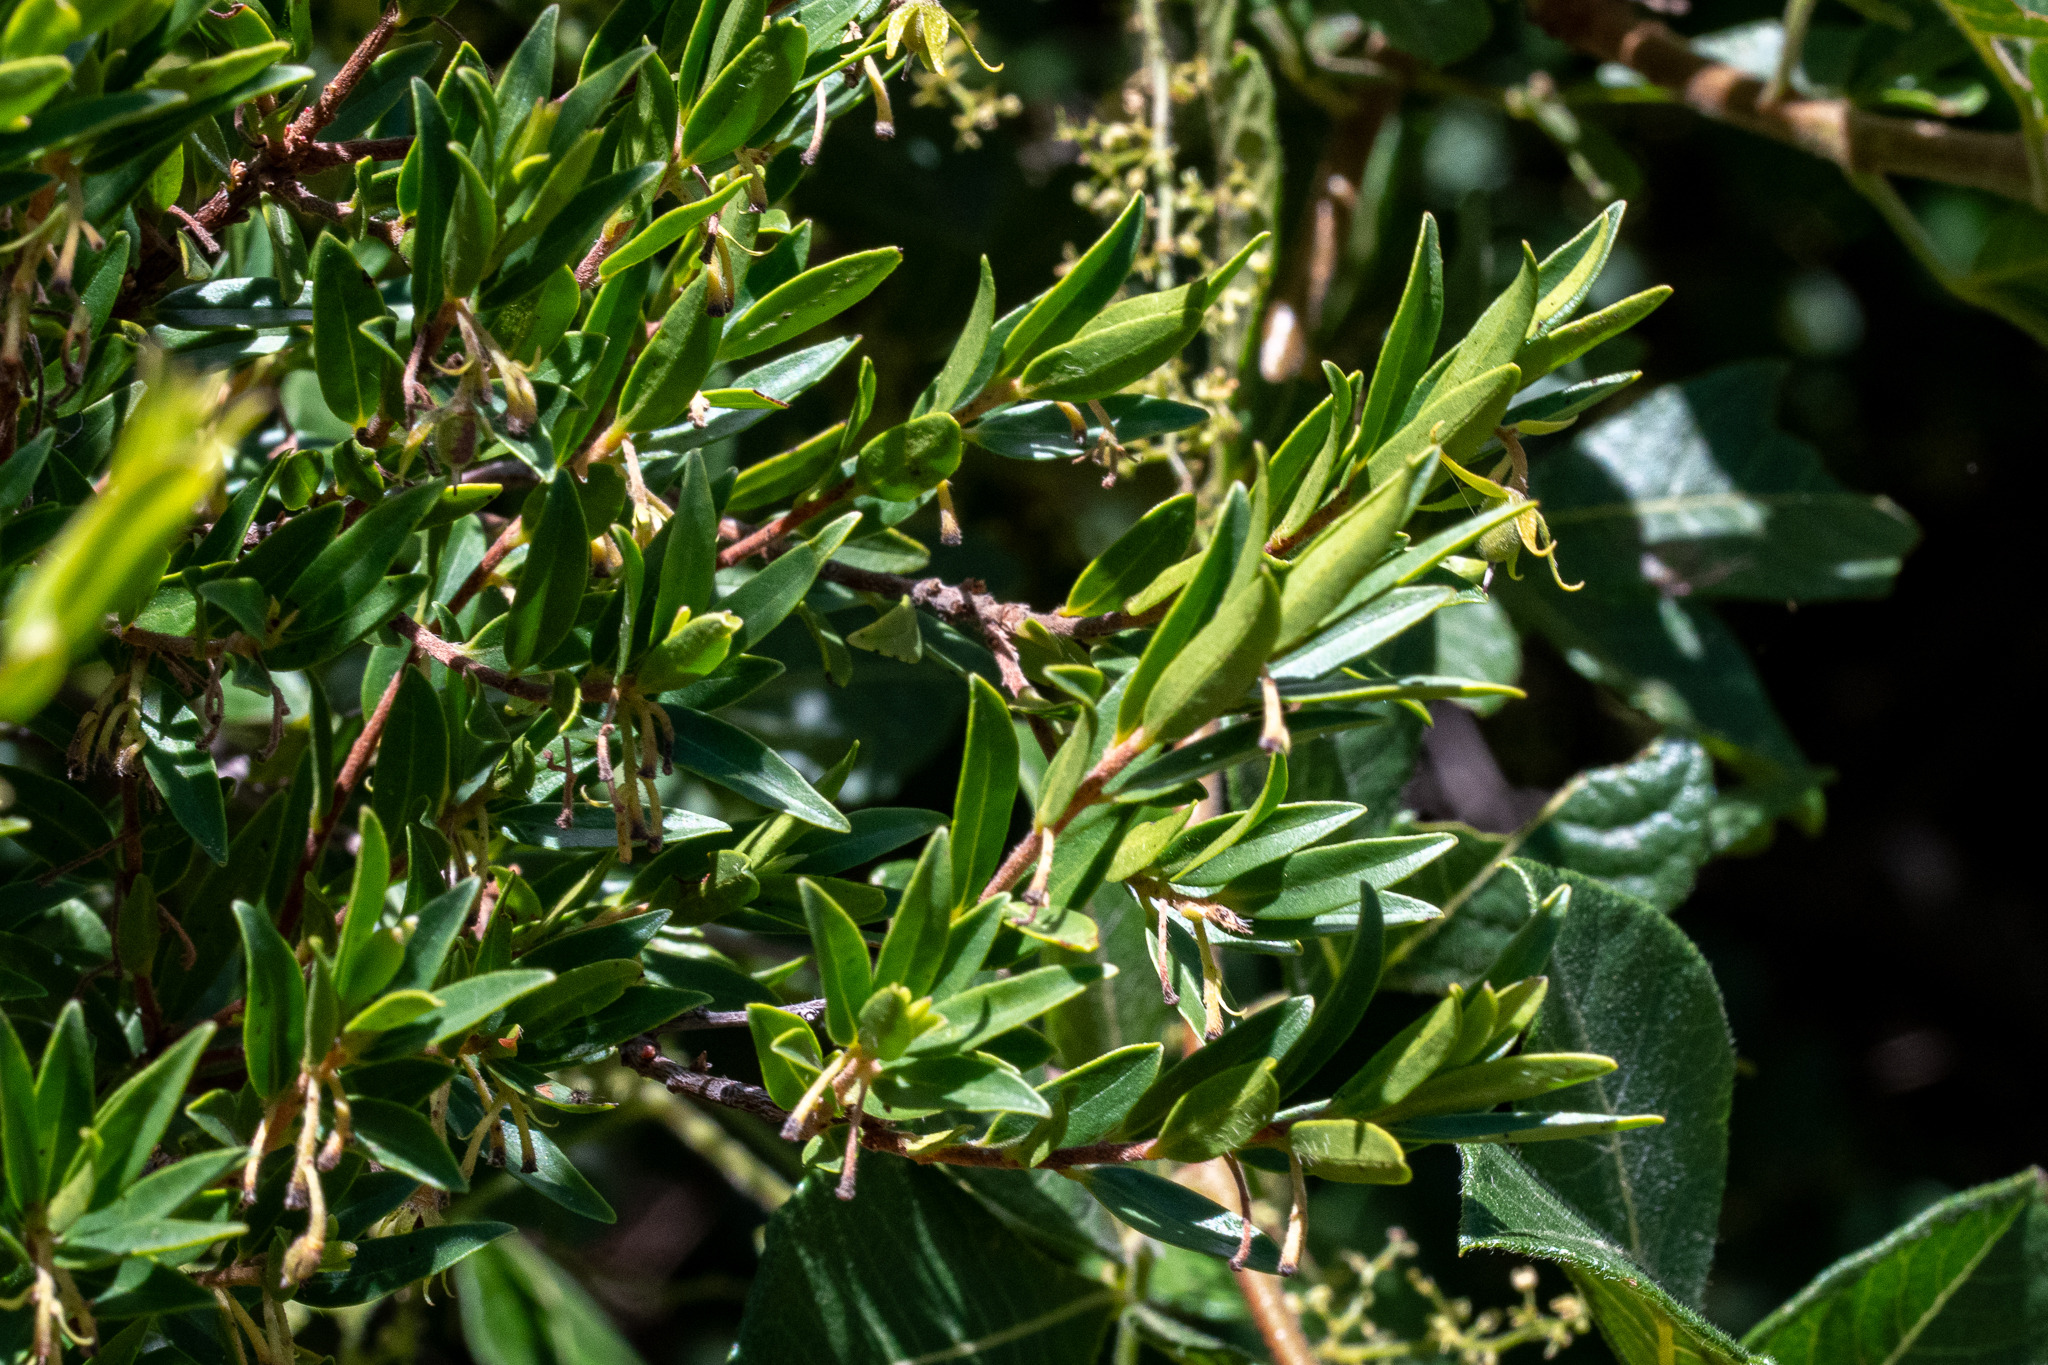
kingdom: Plantae
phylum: Tracheophyta
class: Magnoliopsida
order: Ericales
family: Ebenaceae
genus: Diospyros
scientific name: Diospyros glabra
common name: Fynbos star apple
